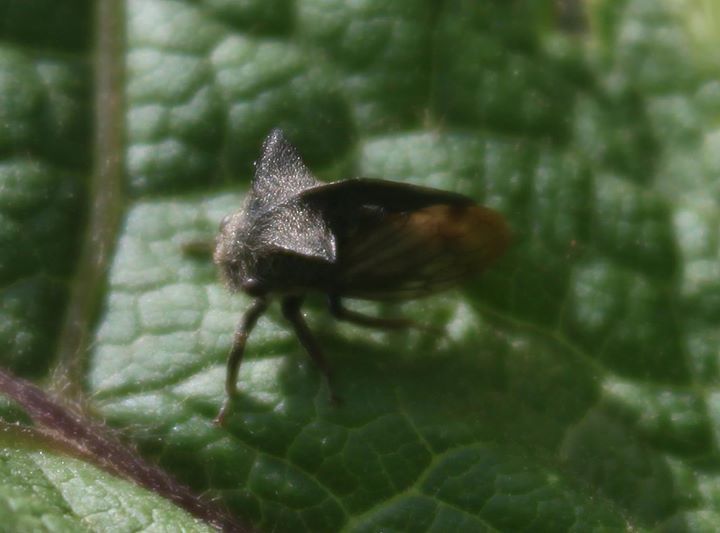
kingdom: Animalia
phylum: Arthropoda
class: Insecta
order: Hemiptera
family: Membracidae
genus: Centrotus
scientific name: Centrotus cornuta
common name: Treehopper
